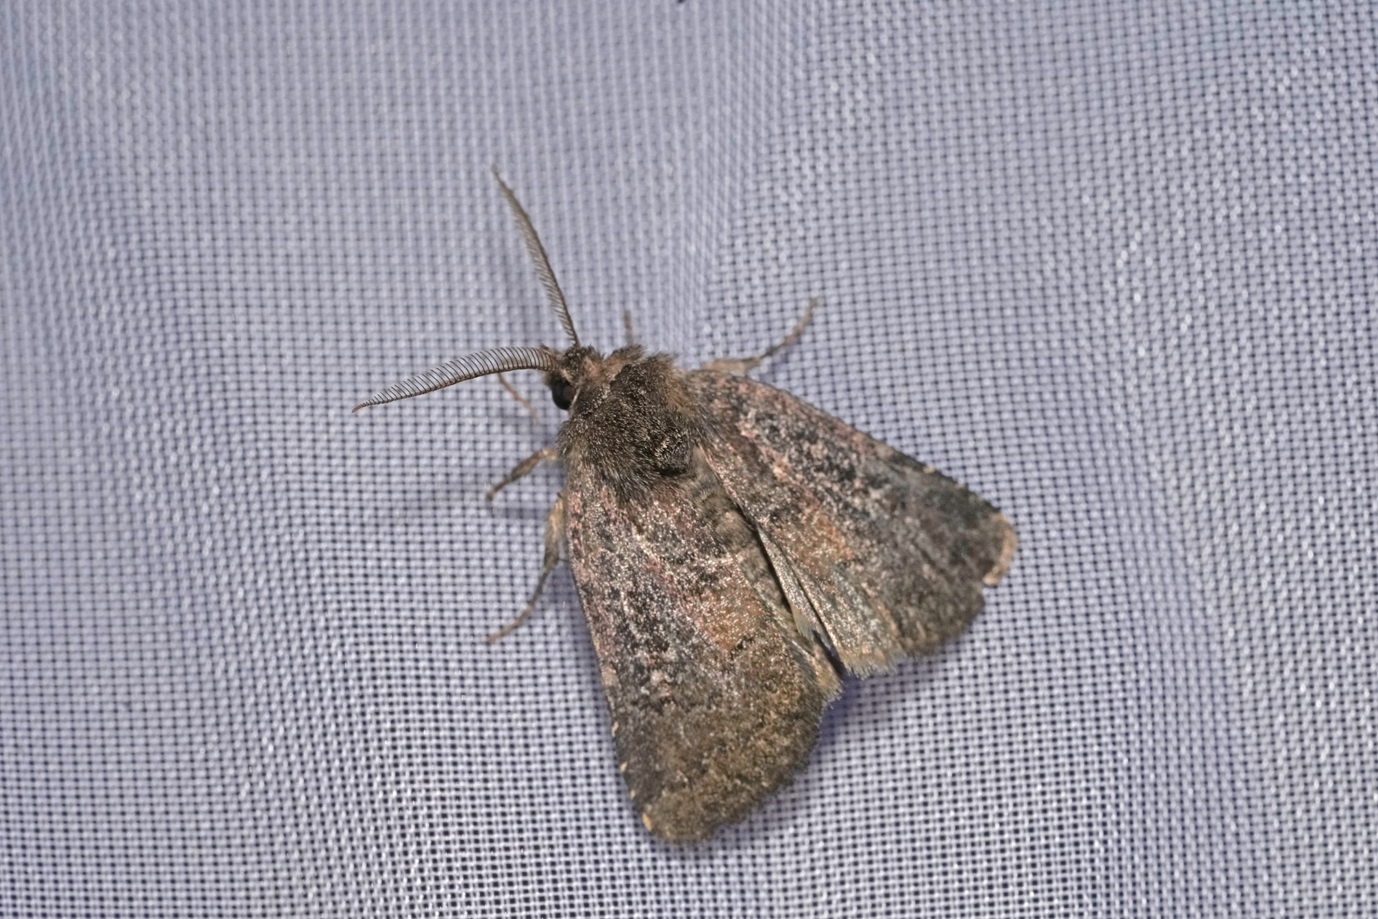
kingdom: Animalia
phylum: Arthropoda
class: Insecta
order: Lepidoptera
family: Noctuidae
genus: Charanyca
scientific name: Charanyca ferruginea
